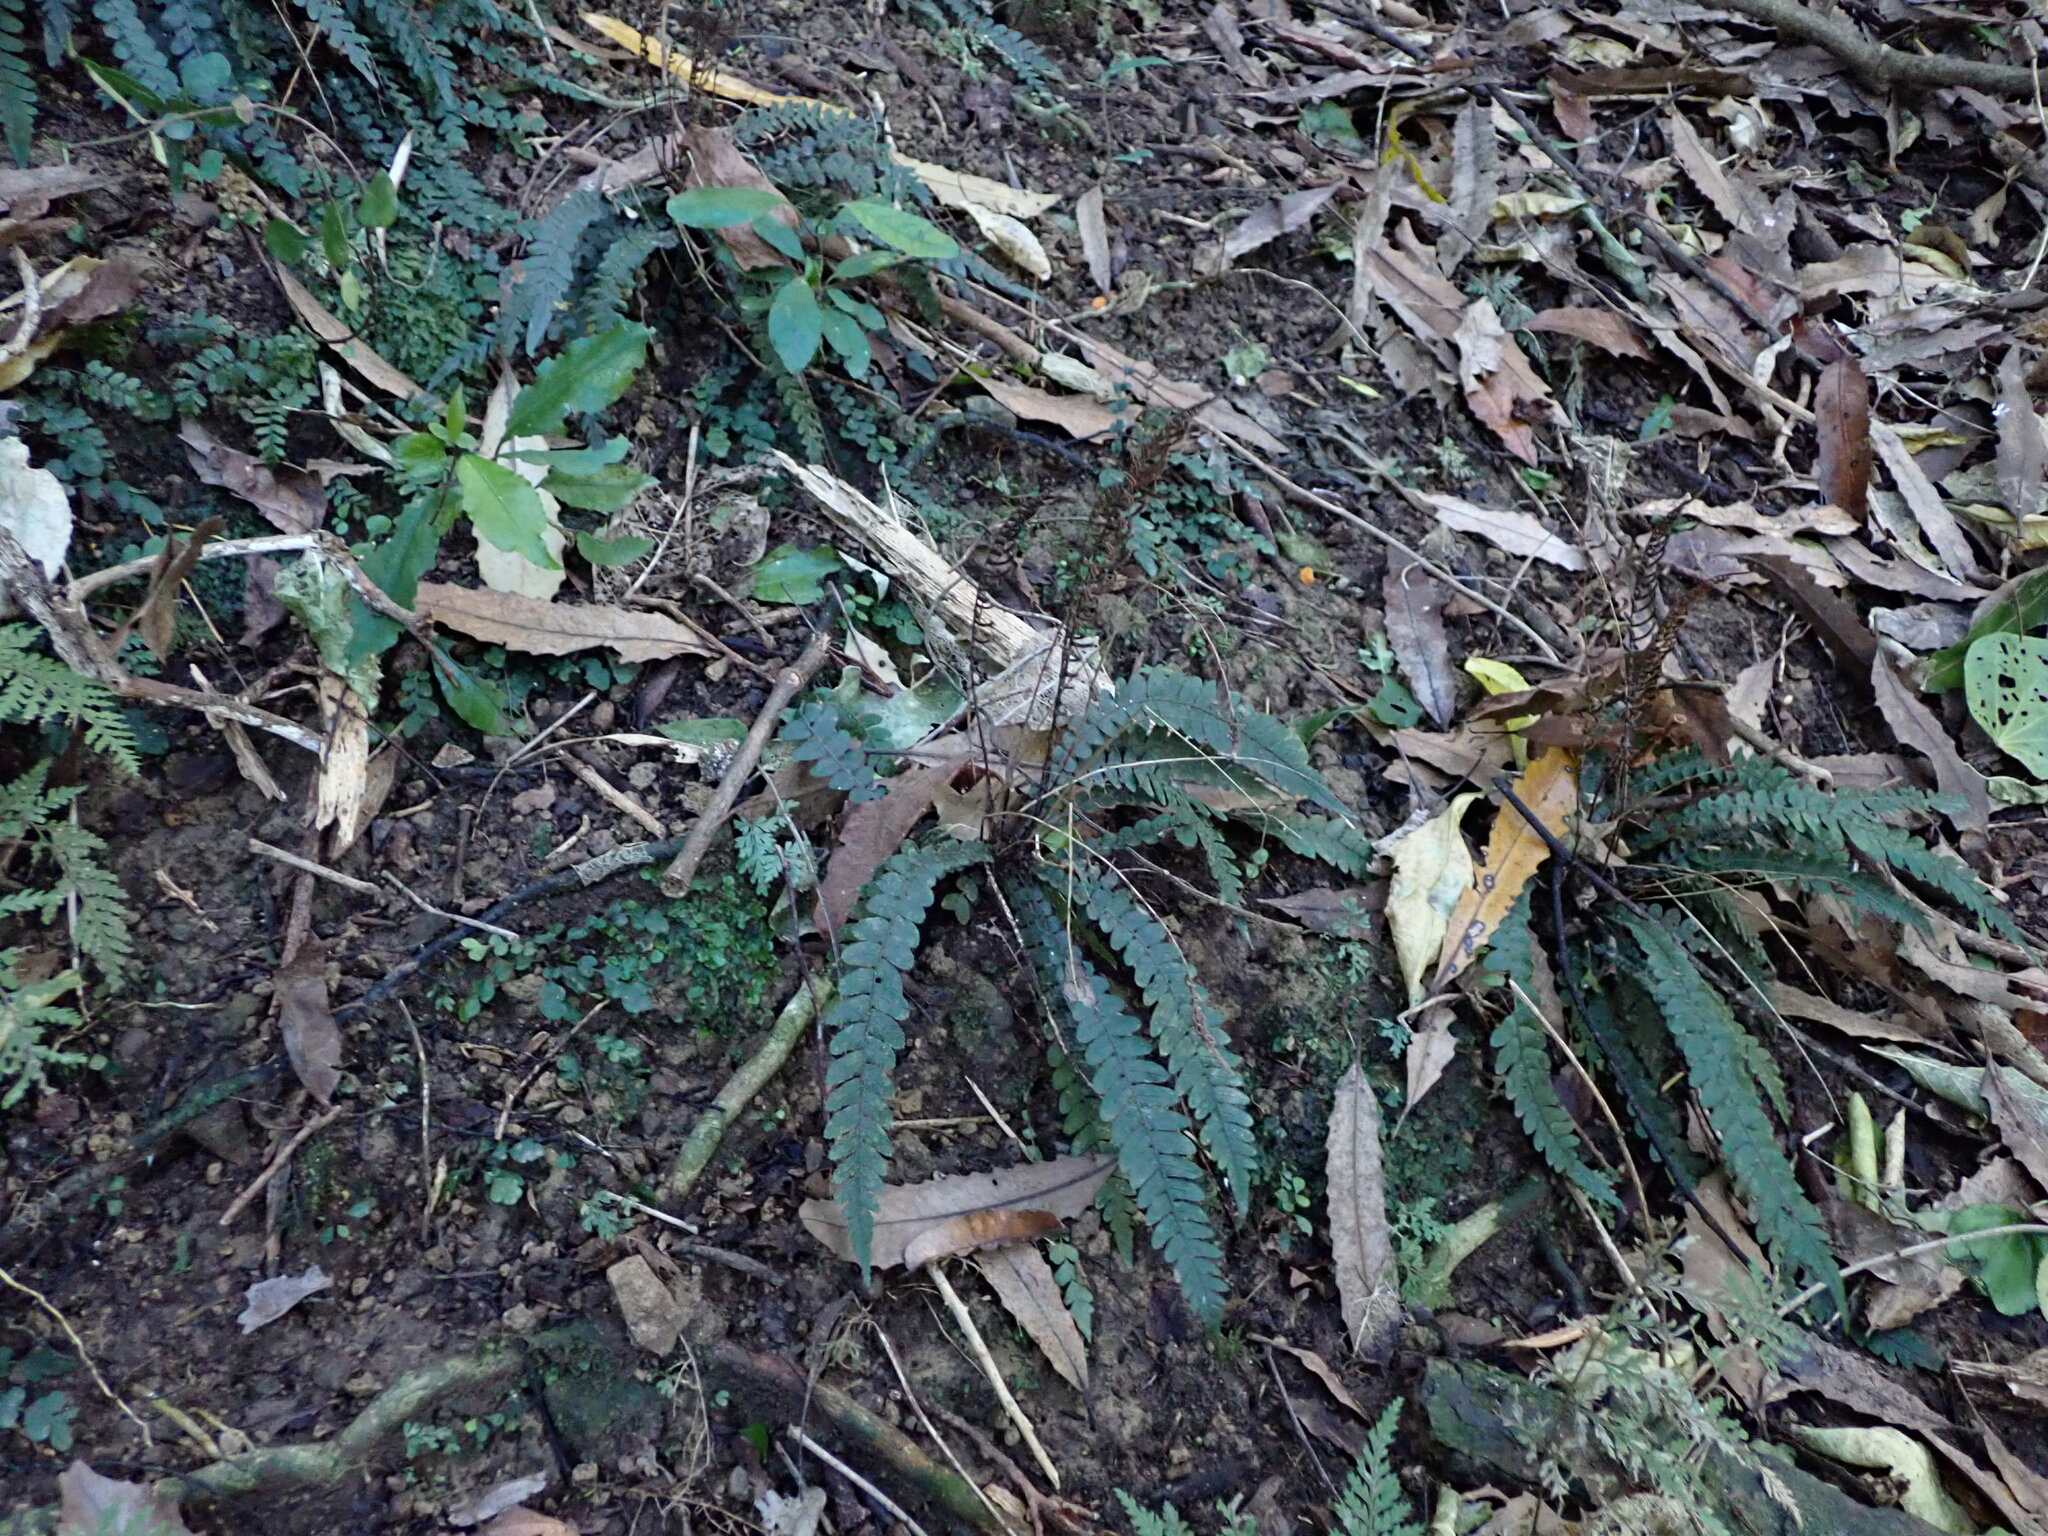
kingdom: Plantae
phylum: Tracheophyta
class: Polypodiopsida
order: Polypodiales
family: Blechnaceae
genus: Austroblechnum
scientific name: Austroblechnum membranaceum
